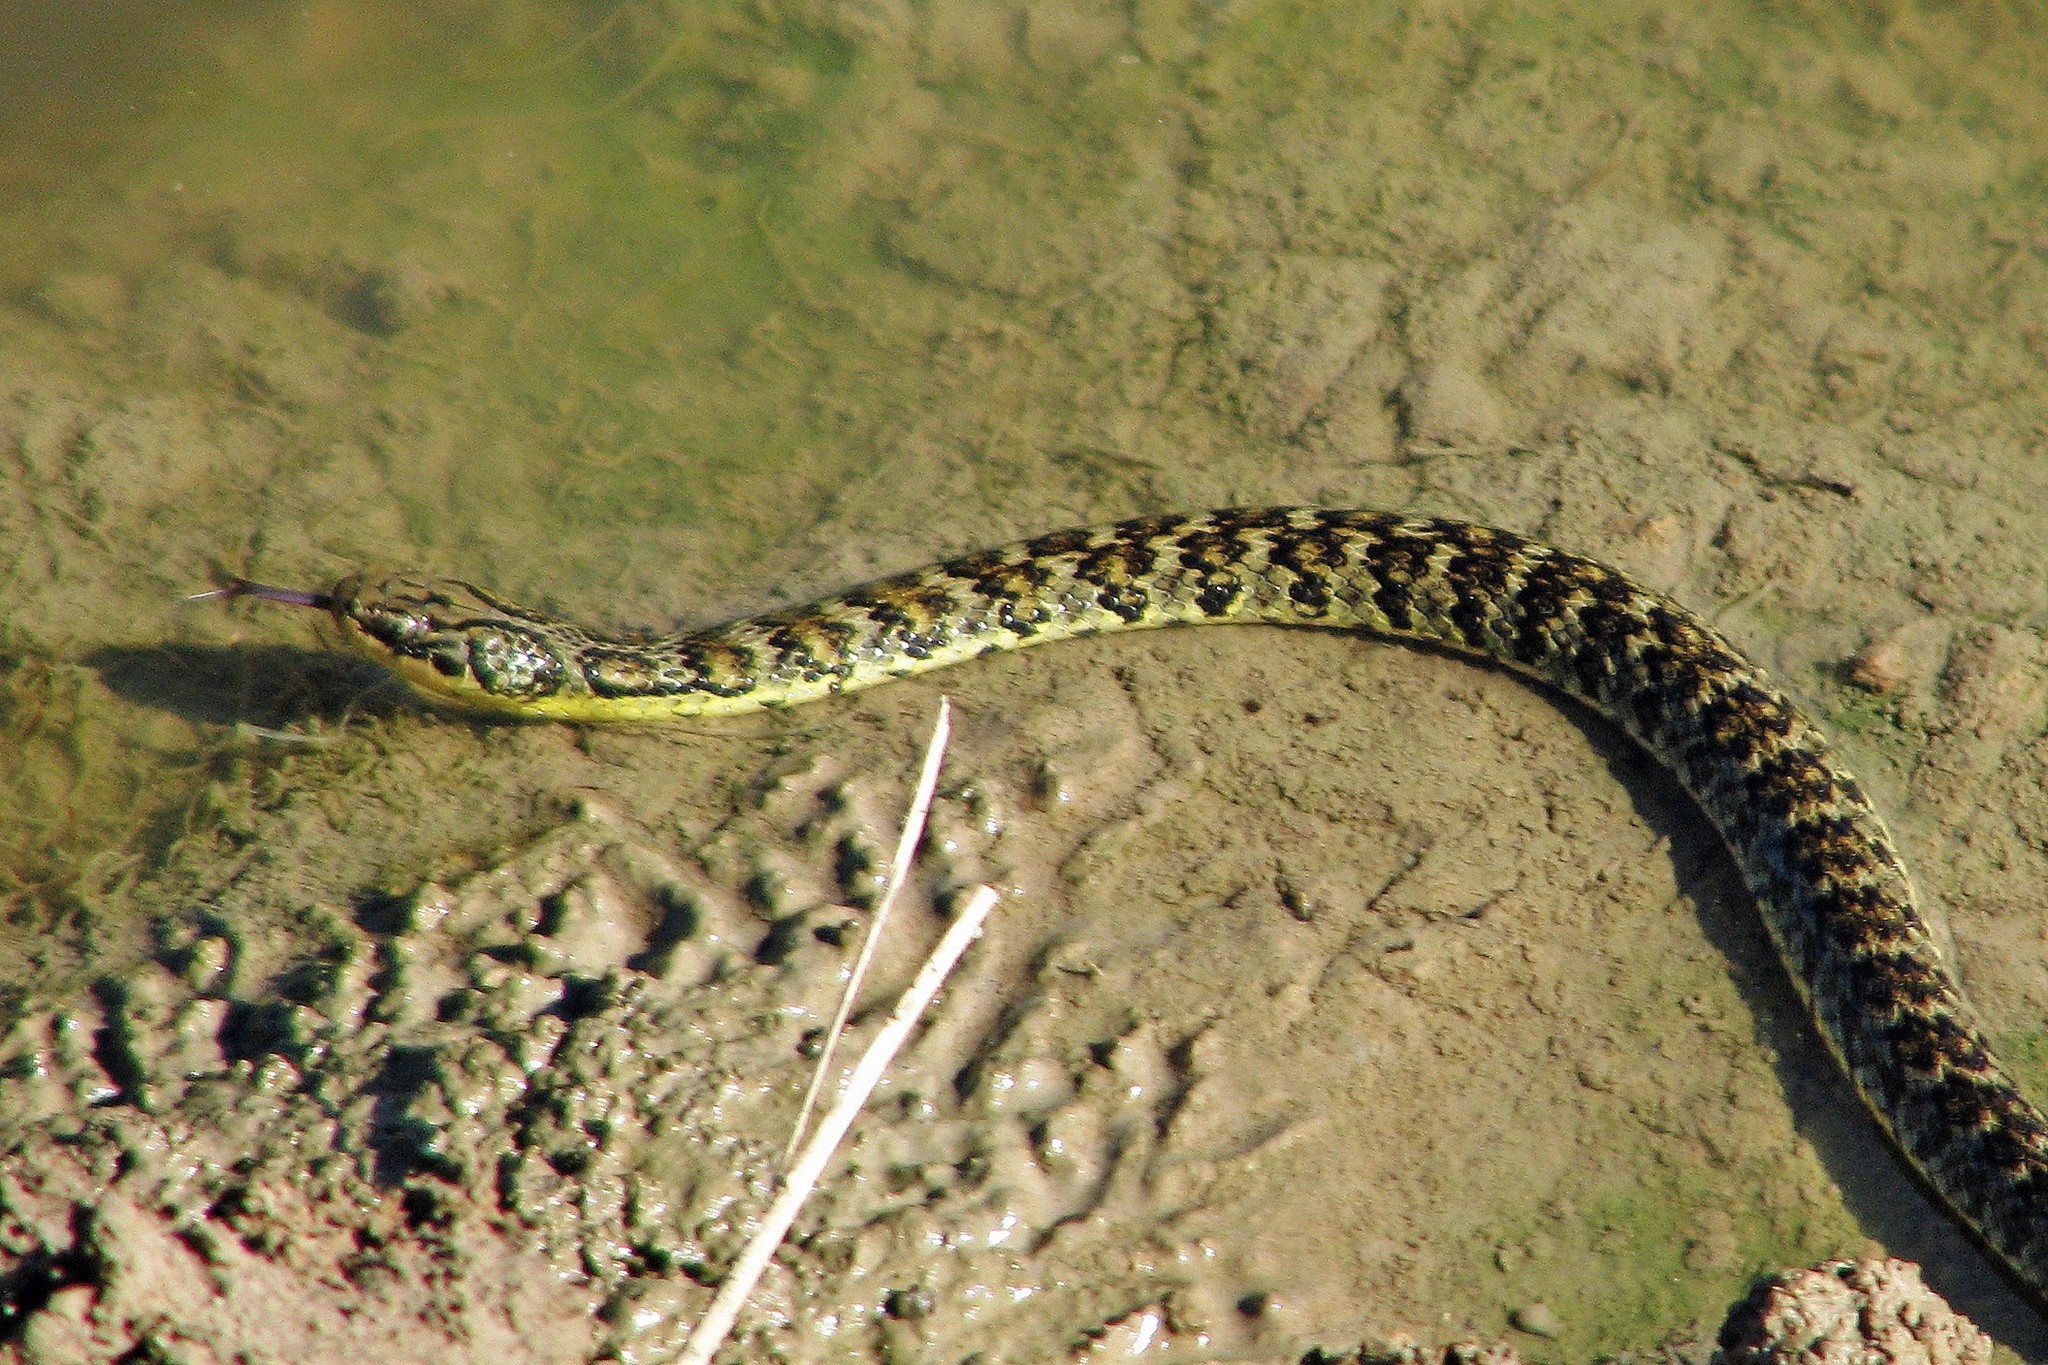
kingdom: Animalia
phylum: Chordata
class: Squamata
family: Colubridae
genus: Erythrolamprus
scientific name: Erythrolamprus poecilogyrus
